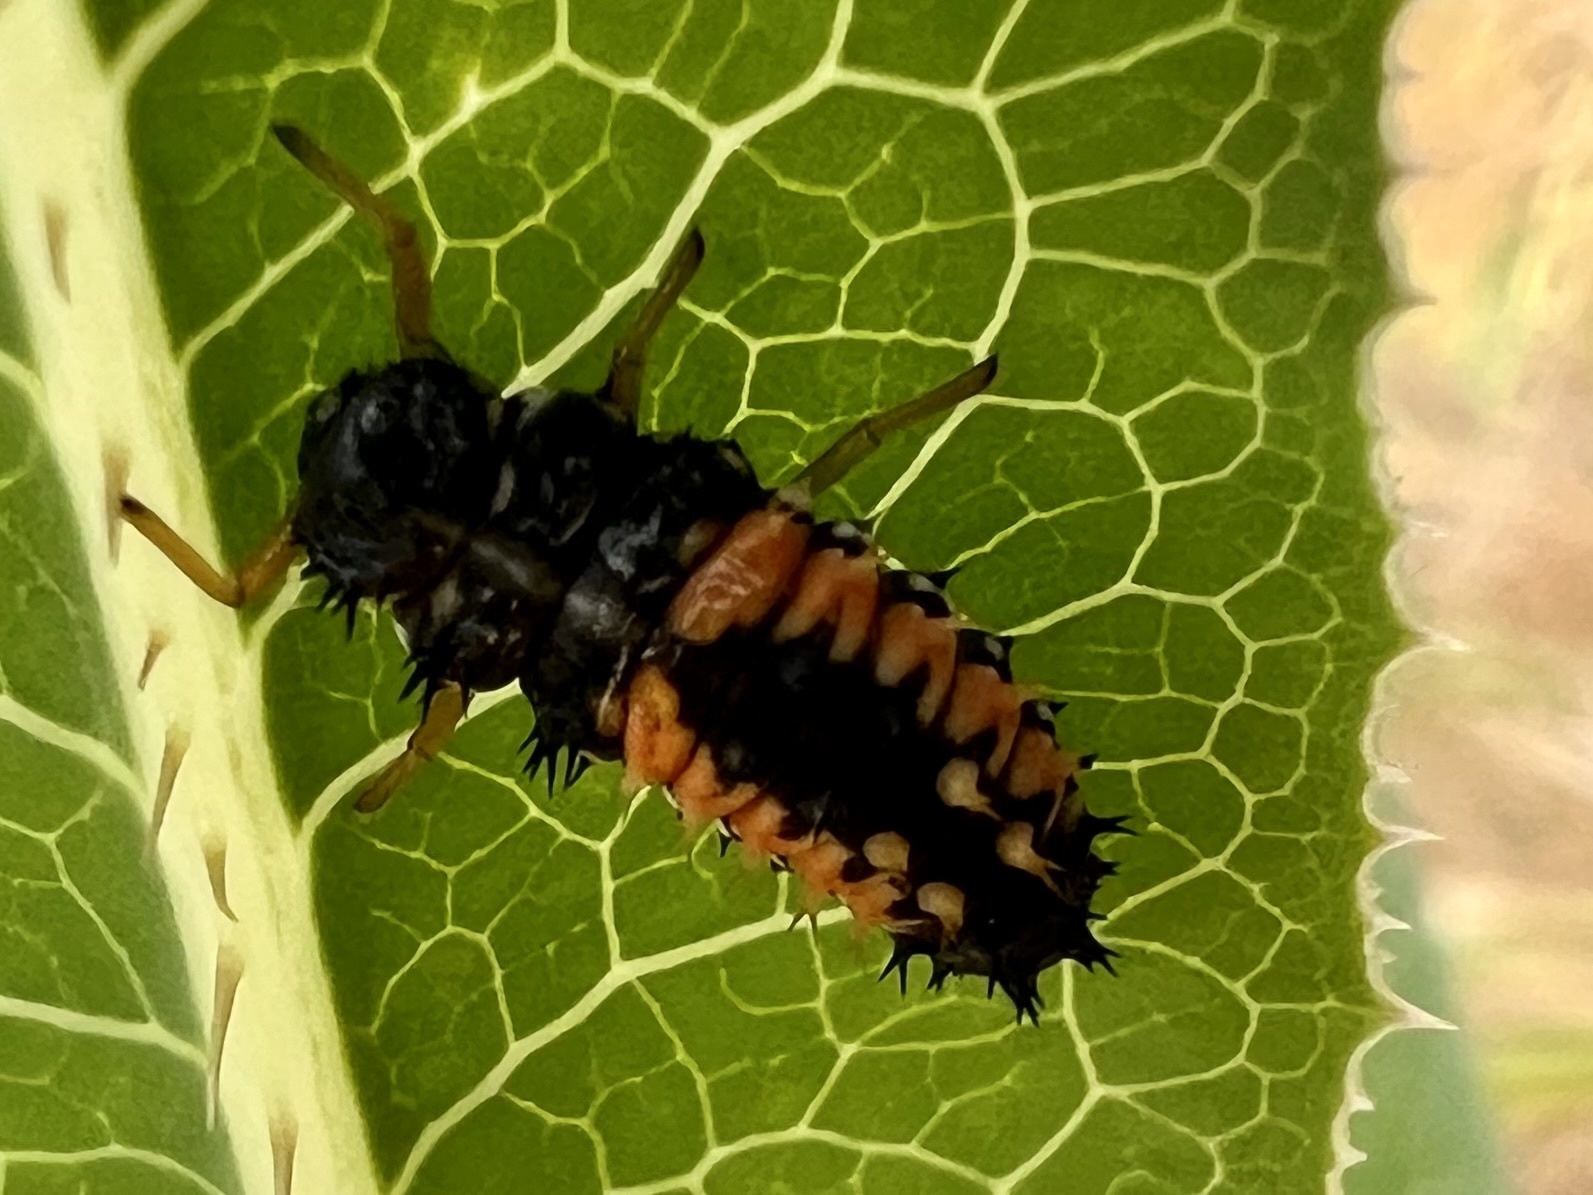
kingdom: Animalia
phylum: Arthropoda
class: Insecta
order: Coleoptera
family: Coccinellidae
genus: Harmonia
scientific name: Harmonia axyridis
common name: Harlequin ladybird
